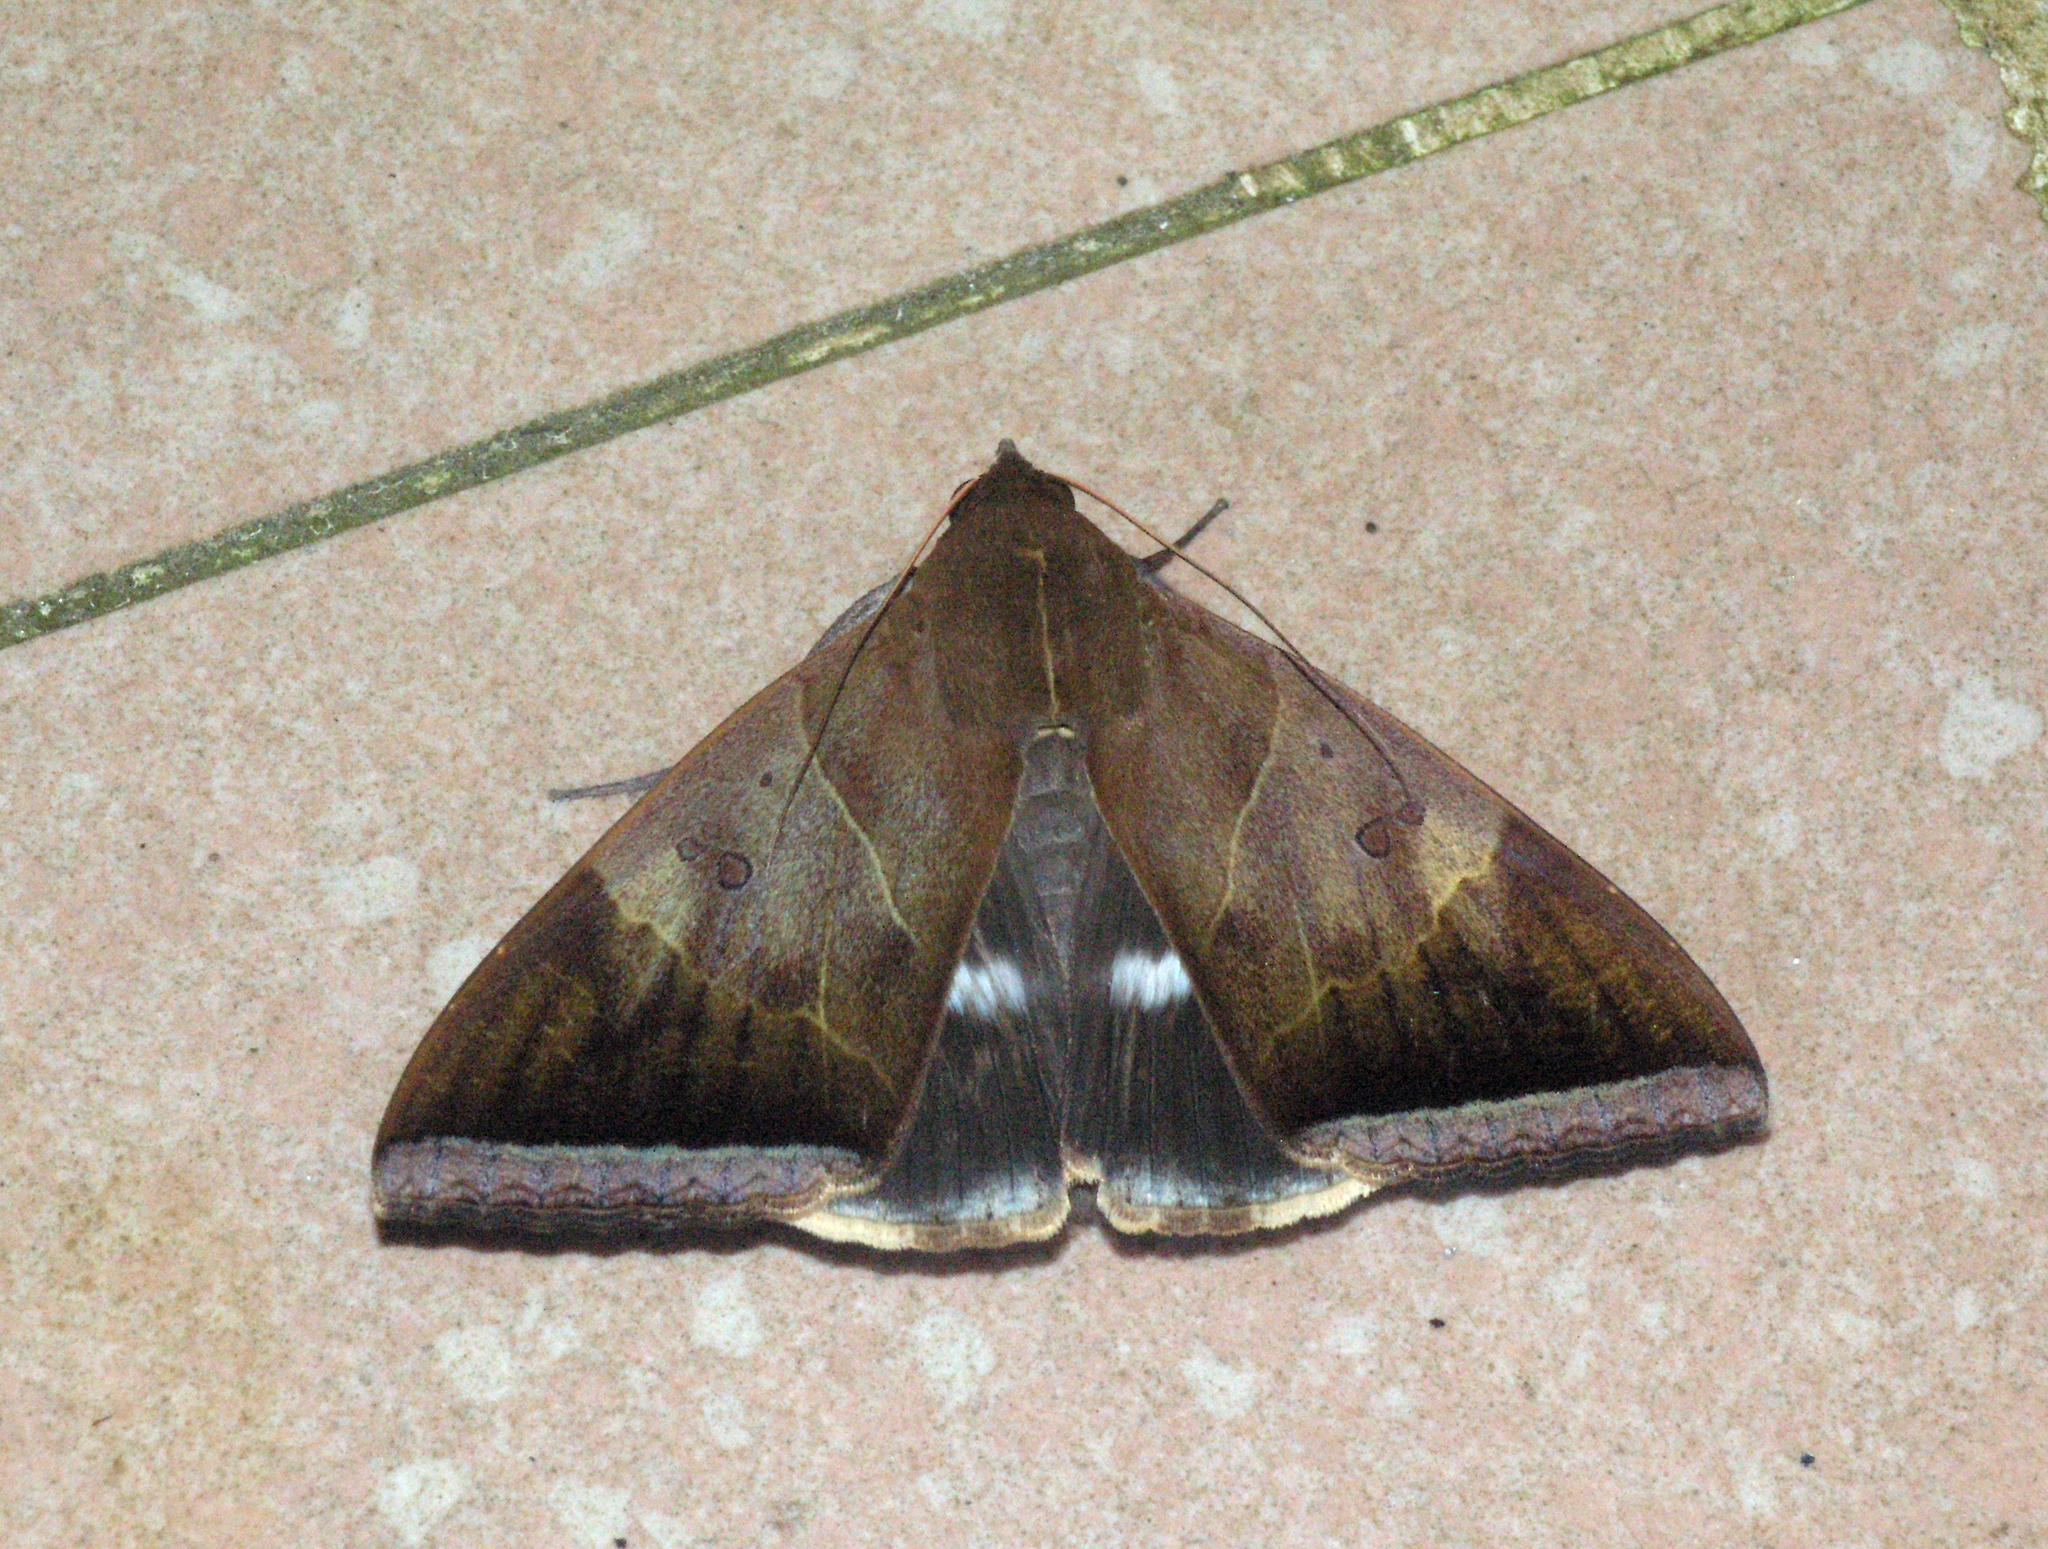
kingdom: Animalia
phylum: Arthropoda
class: Insecta
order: Lepidoptera
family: Erebidae
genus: Artena
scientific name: Artena dotata
